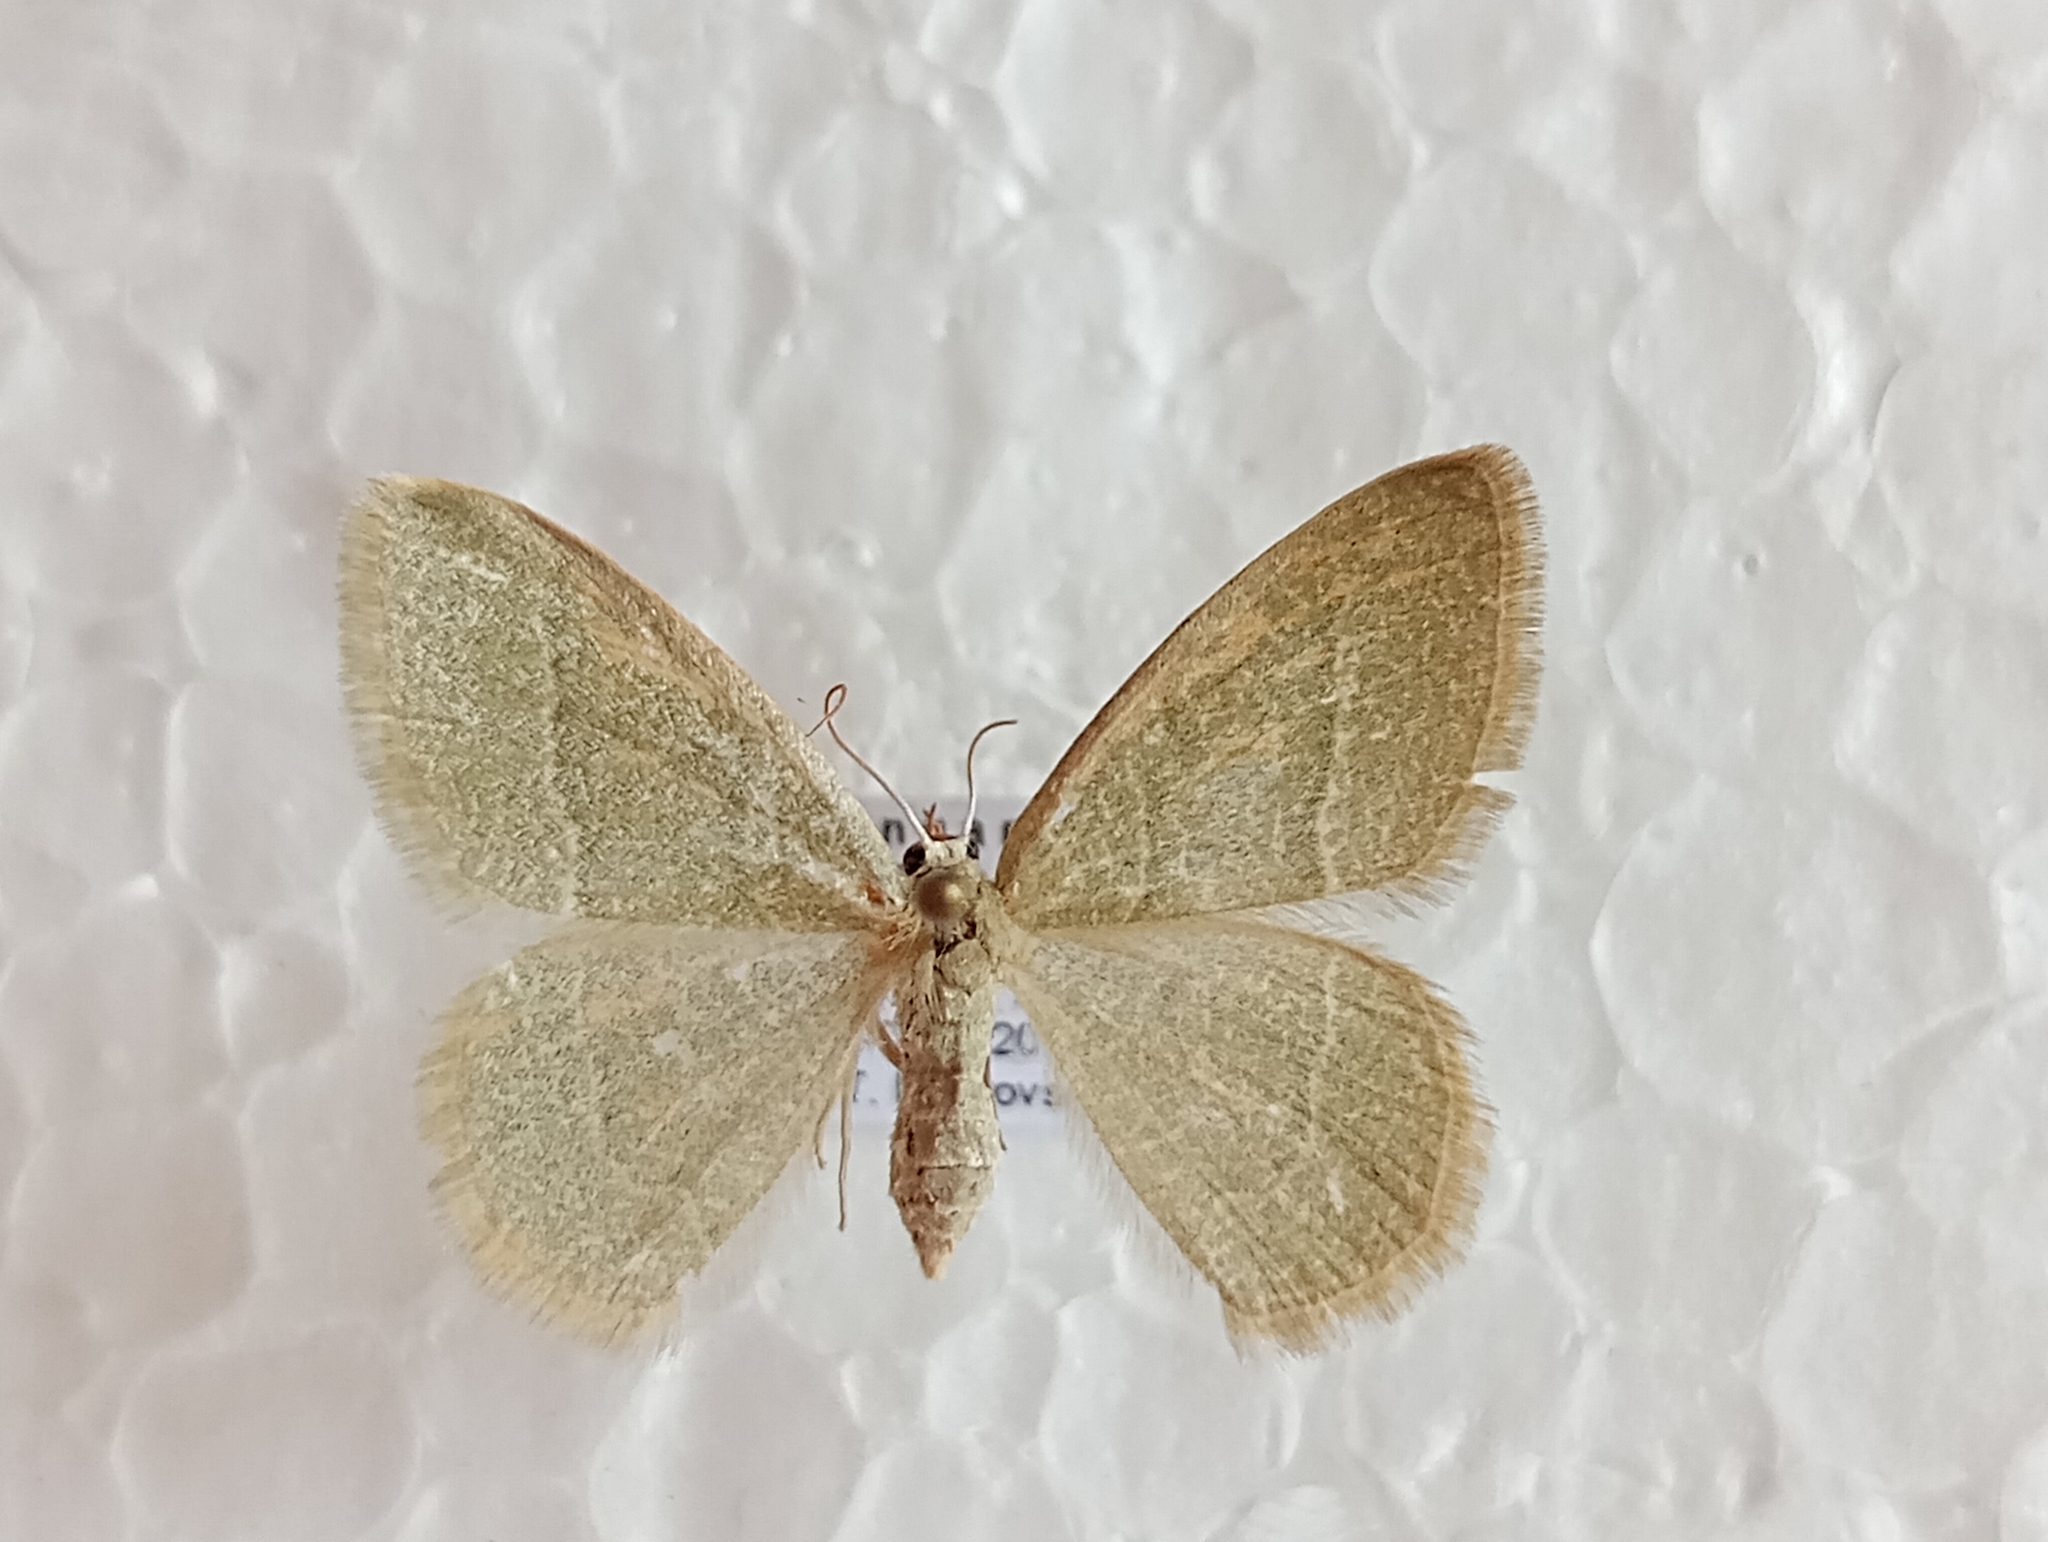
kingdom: Animalia
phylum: Arthropoda
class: Insecta
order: Lepidoptera
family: Geometridae
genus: Chlorissa
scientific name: Chlorissa etruscaria
